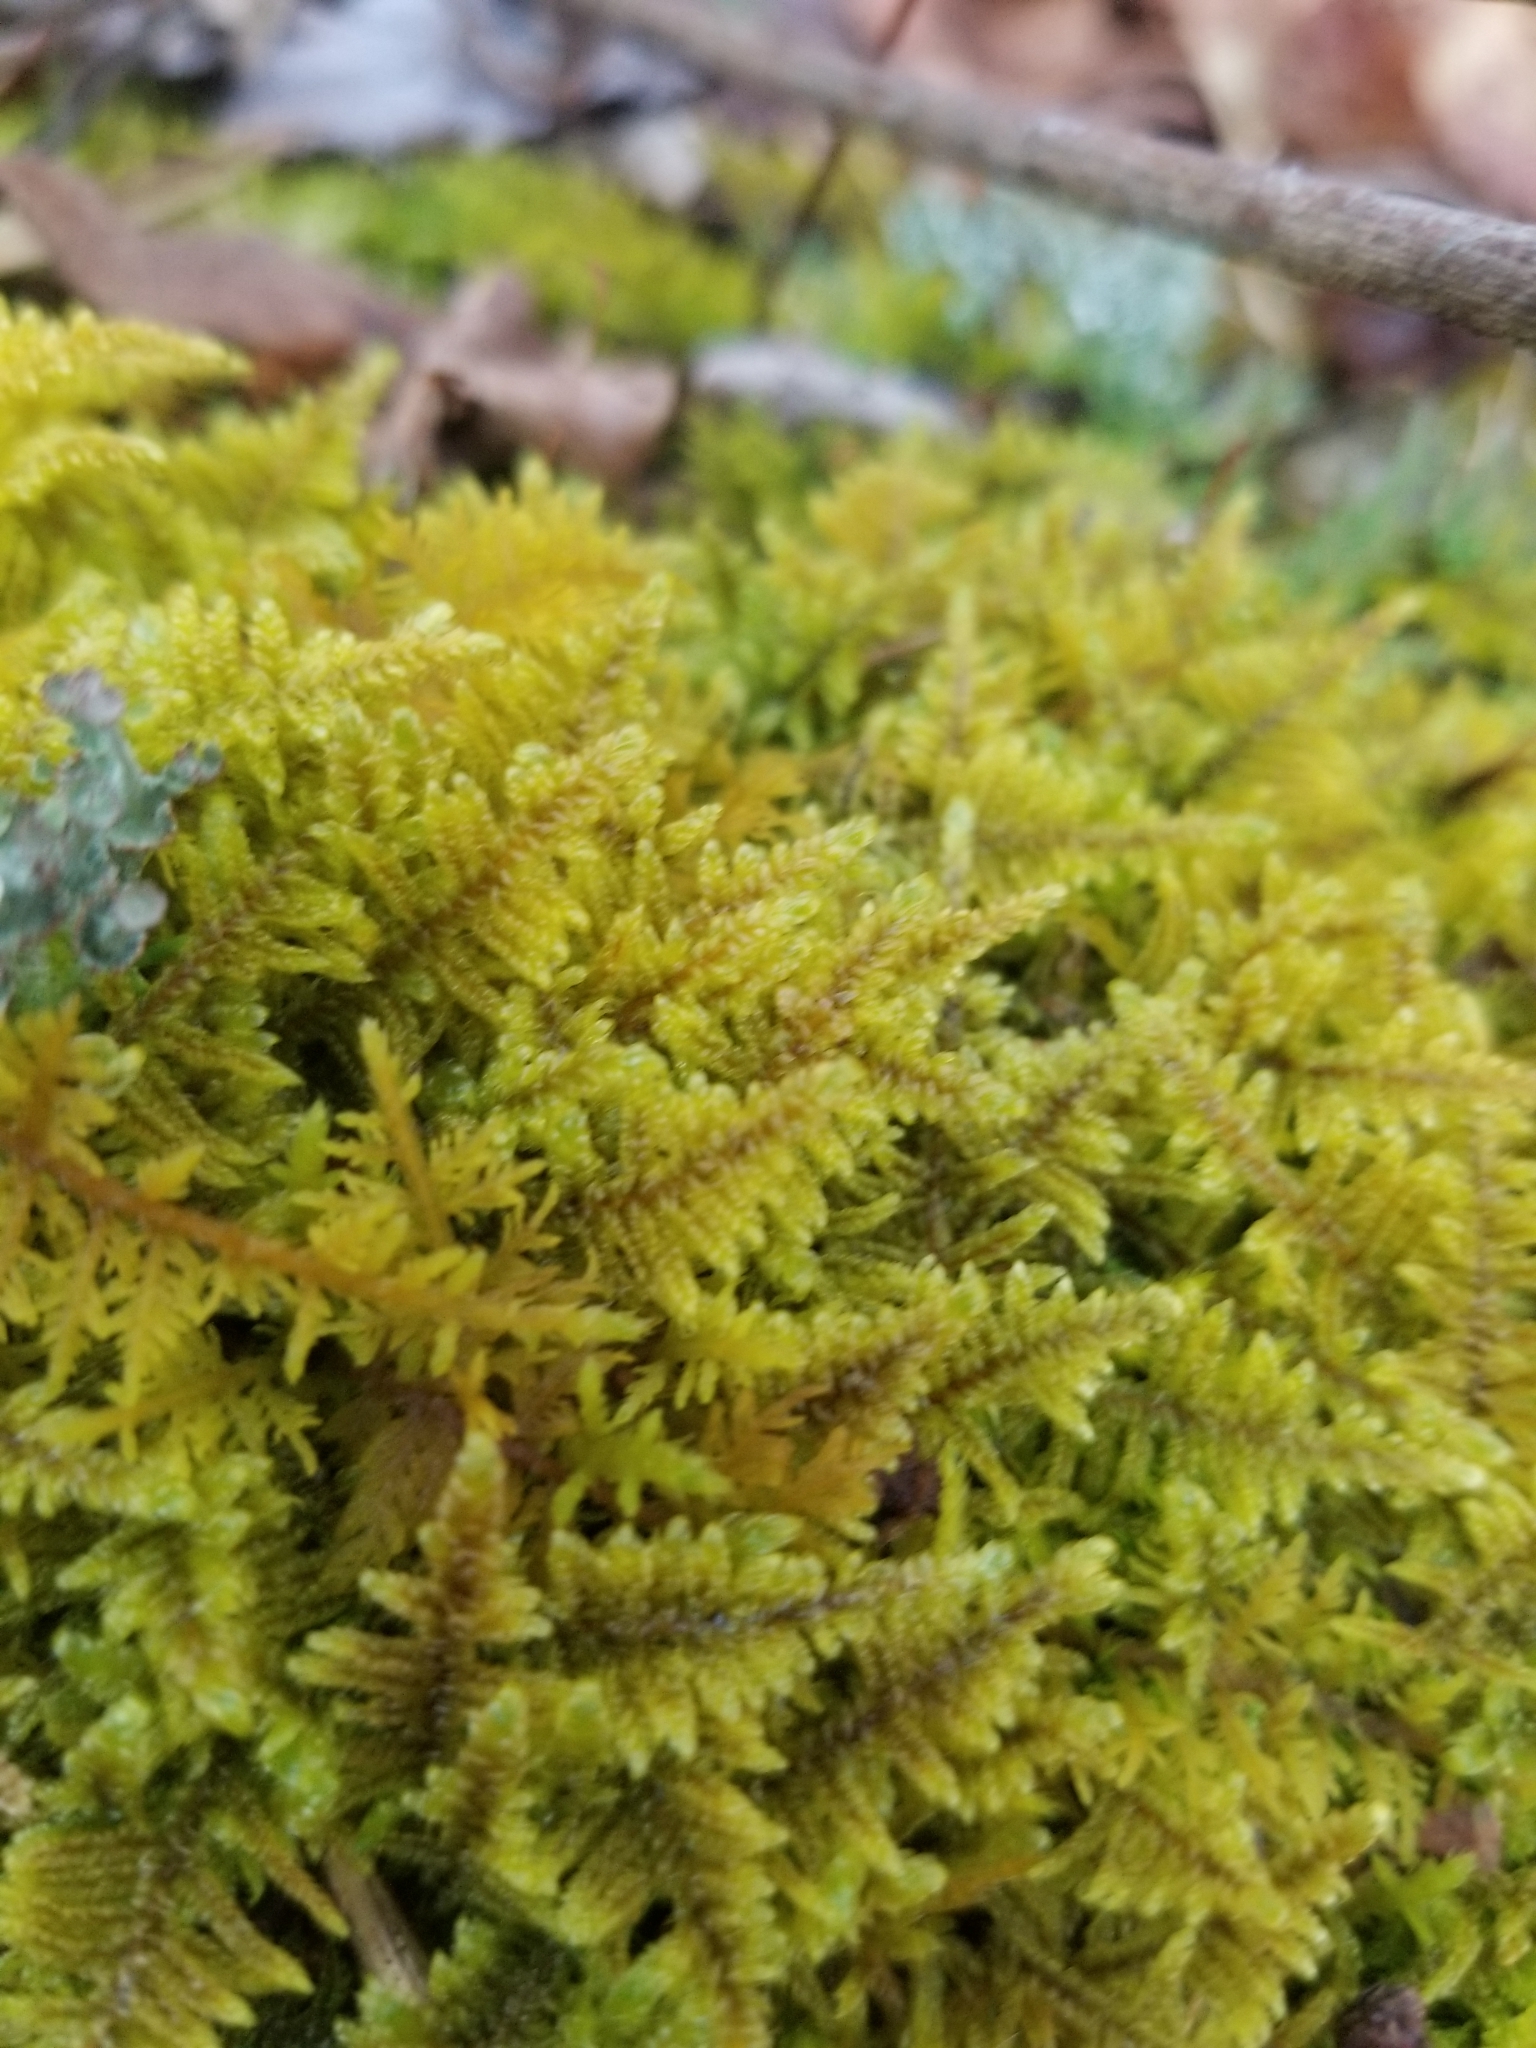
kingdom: Plantae
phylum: Bryophyta
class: Bryopsida
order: Hypnales
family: Callicladiaceae
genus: Callicladium
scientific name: Callicladium imponens
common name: Brocade moss
